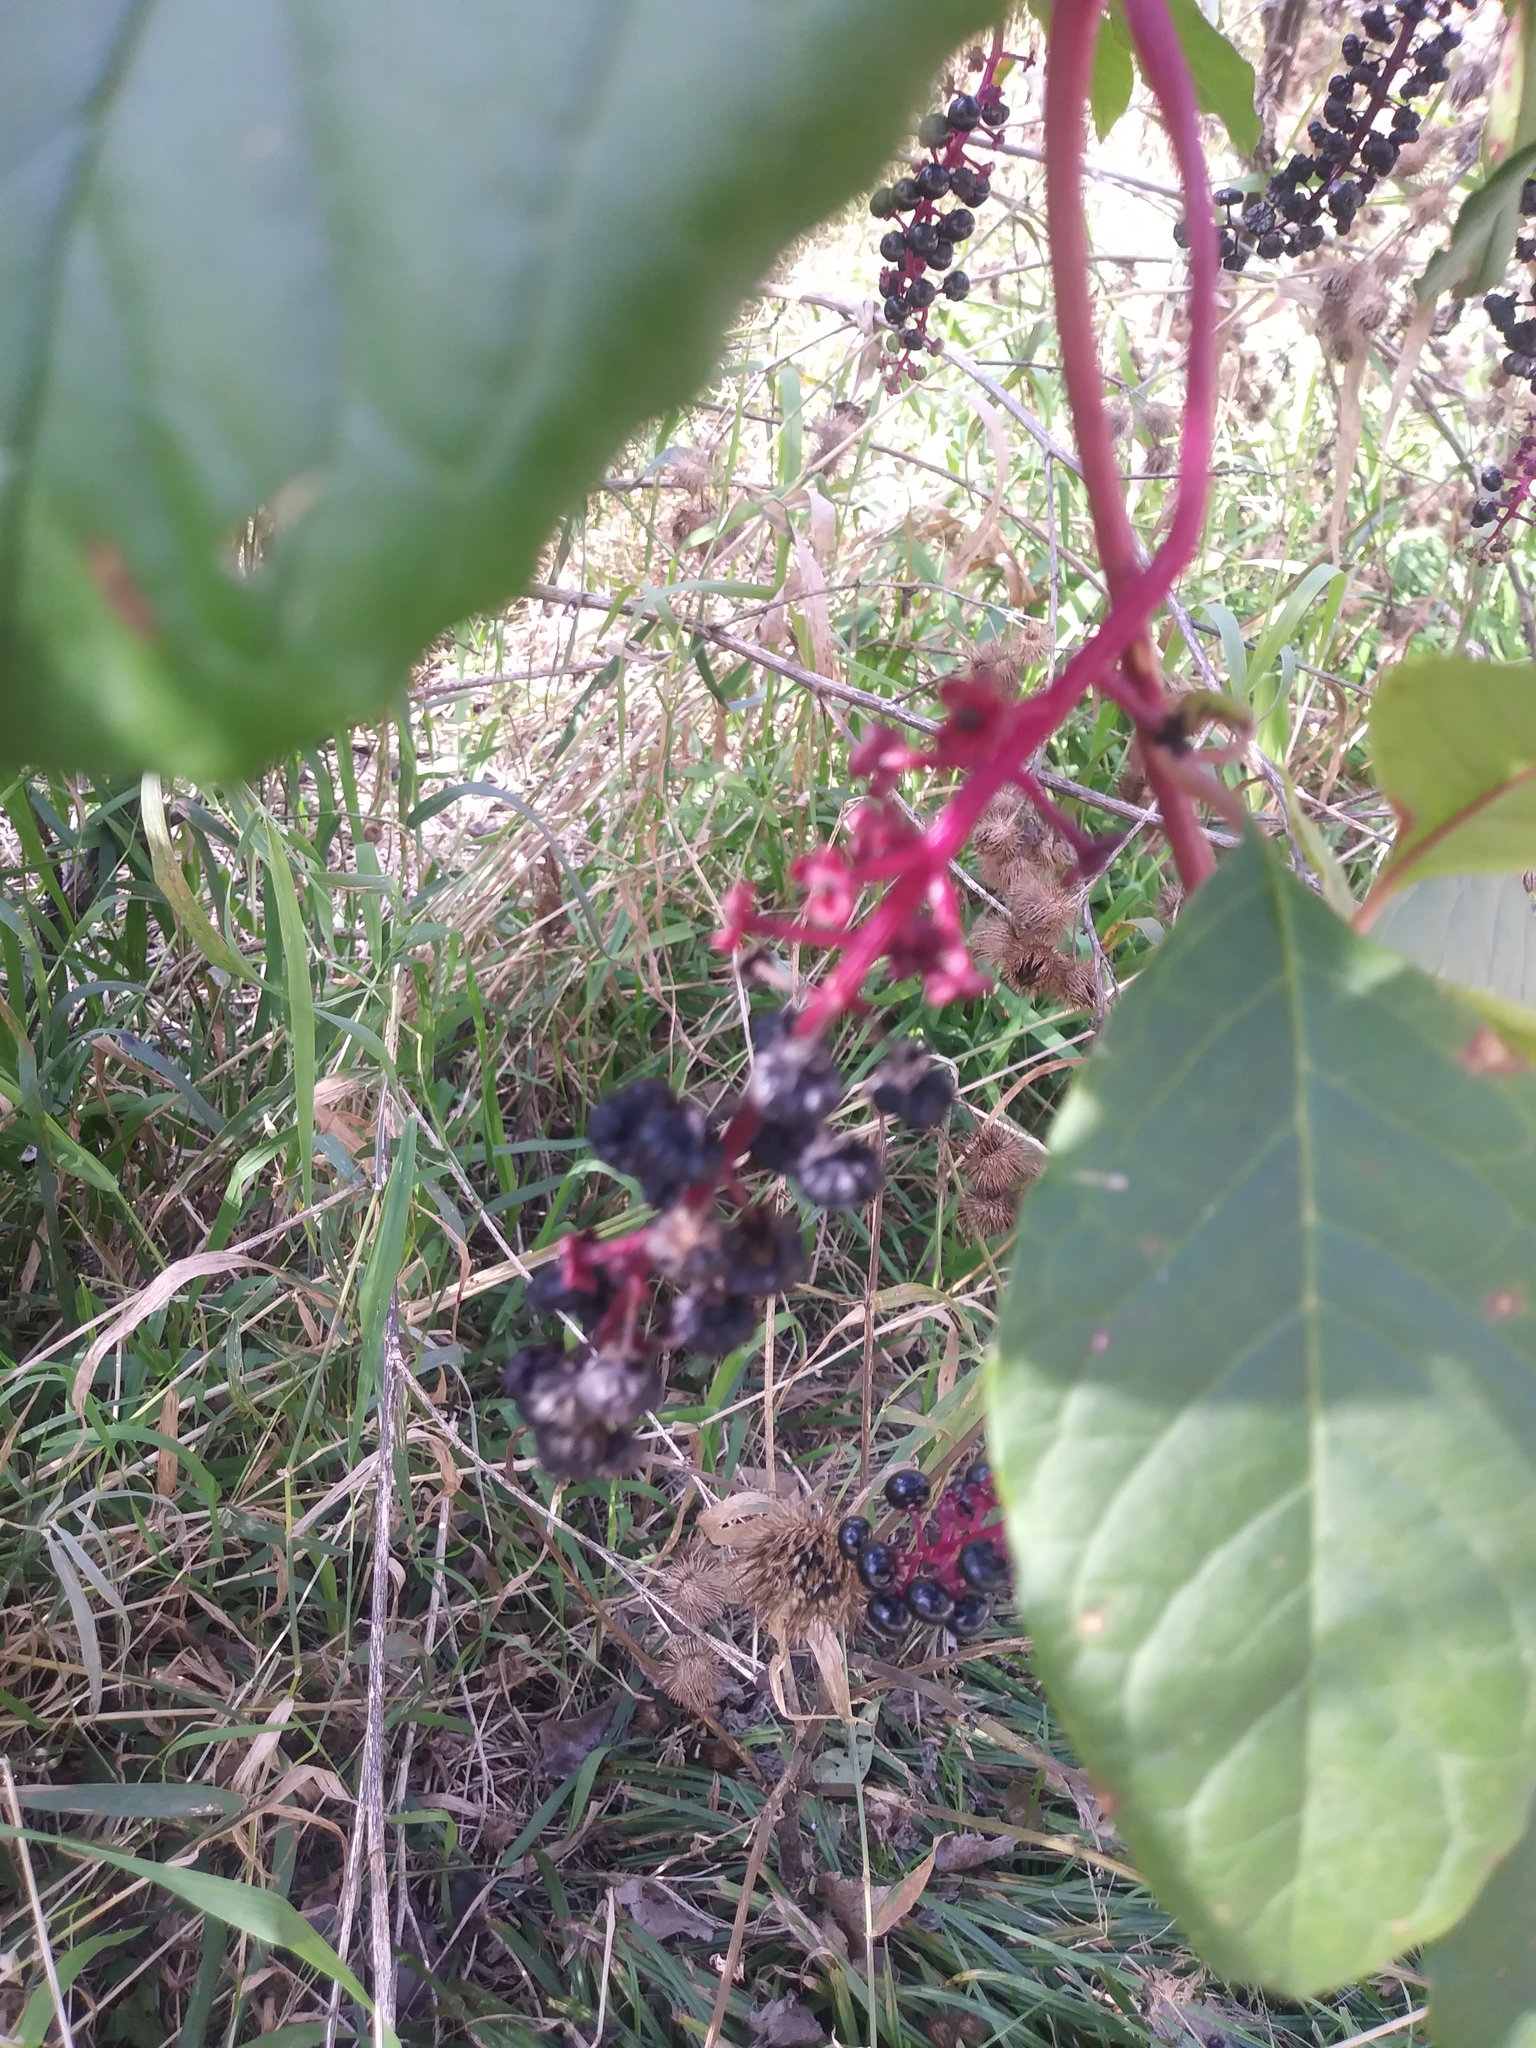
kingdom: Plantae
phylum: Tracheophyta
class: Magnoliopsida
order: Caryophyllales
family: Phytolaccaceae
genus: Phytolacca
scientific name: Phytolacca americana
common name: American pokeweed
